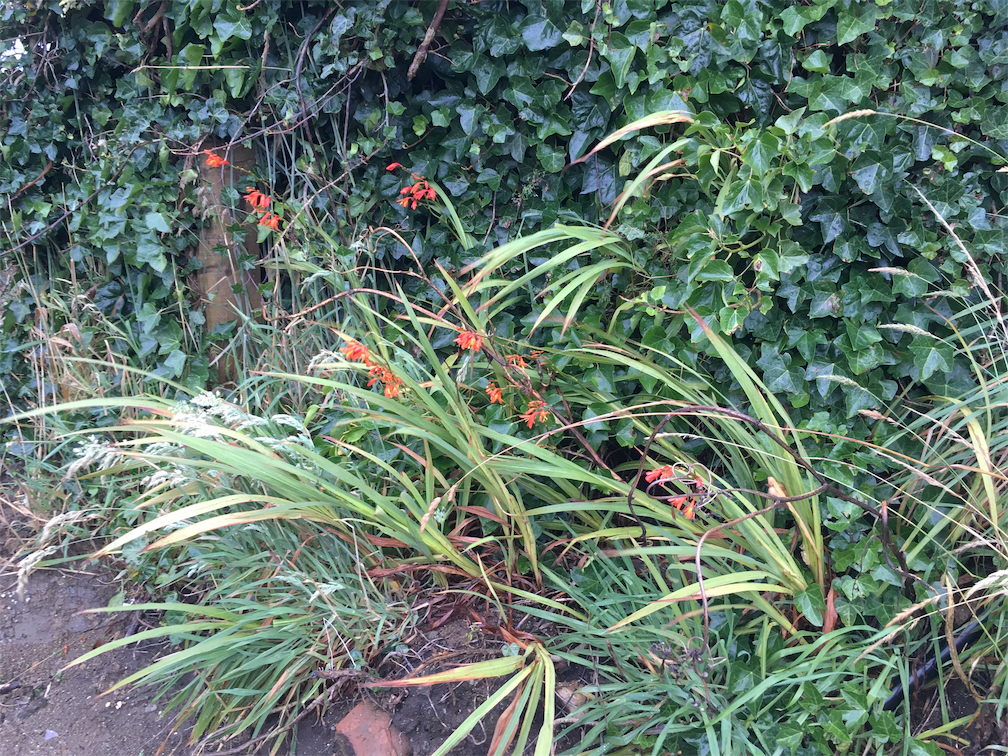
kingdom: Plantae
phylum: Tracheophyta
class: Liliopsida
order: Asparagales
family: Iridaceae
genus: Crocosmia
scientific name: Crocosmia crocosmiiflora
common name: Montbretia
